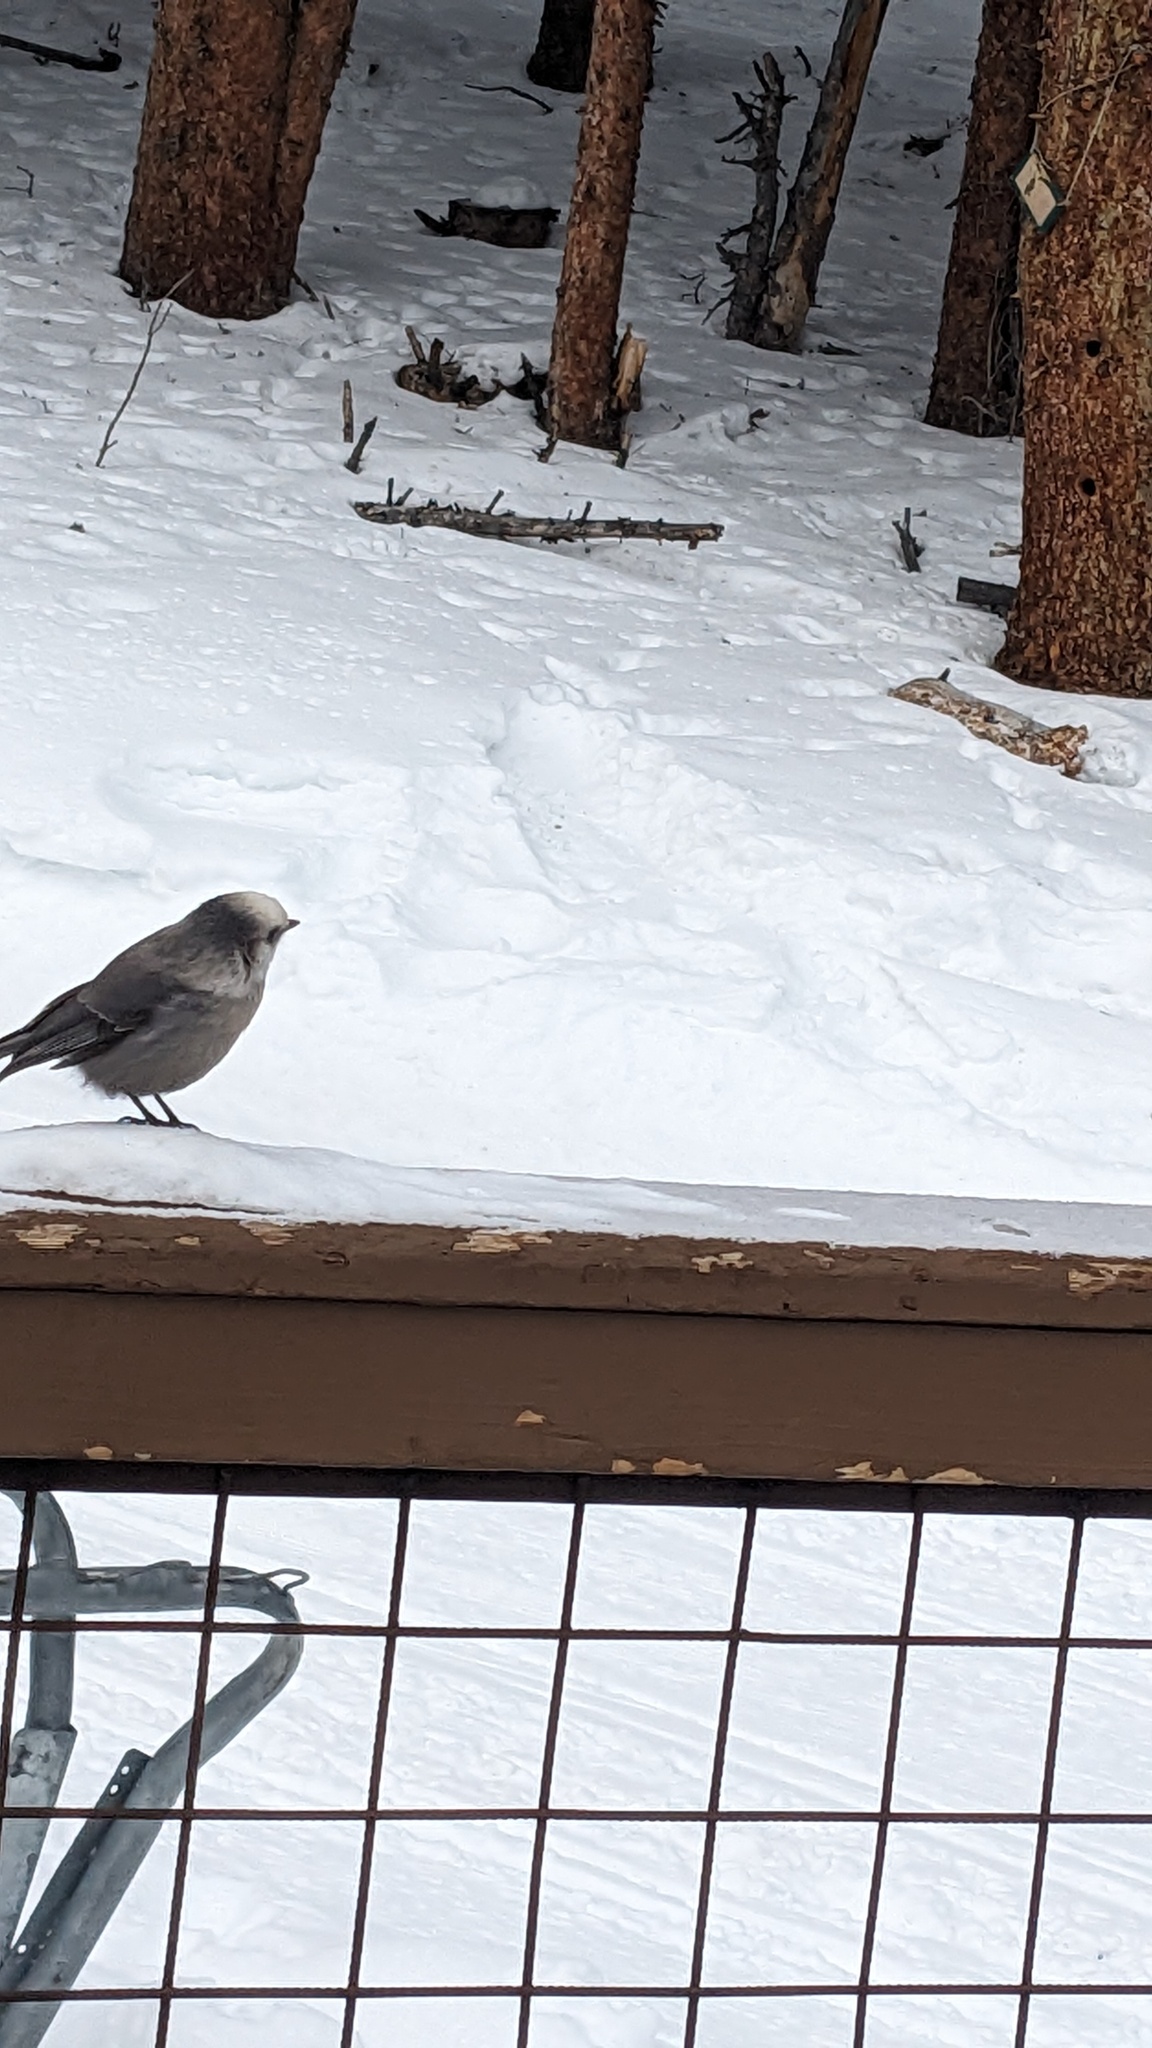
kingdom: Animalia
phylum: Chordata
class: Aves
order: Passeriformes
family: Corvidae
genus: Perisoreus
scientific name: Perisoreus canadensis
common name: Gray jay
